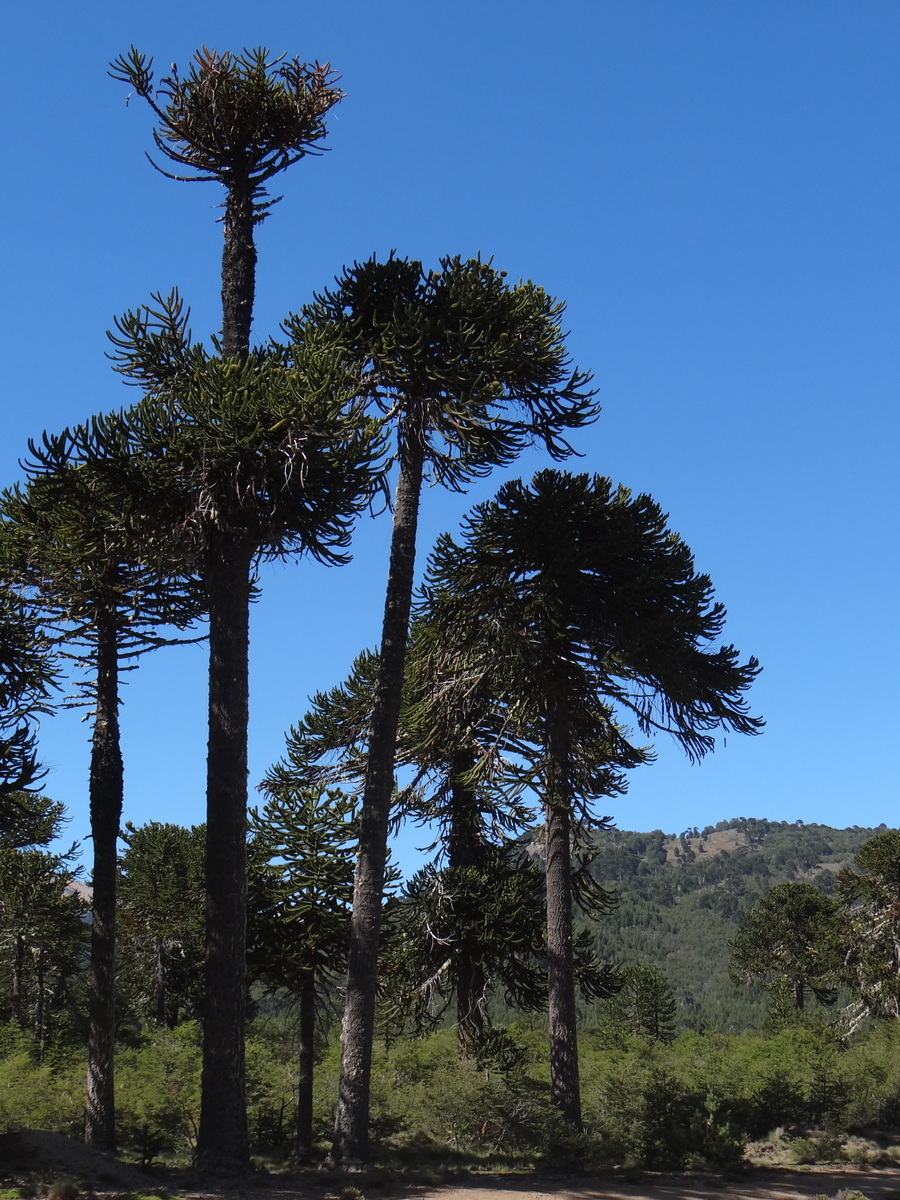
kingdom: Plantae
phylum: Tracheophyta
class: Pinopsida
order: Pinales
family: Araucariaceae
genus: Araucaria
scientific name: Araucaria araucana
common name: Monkey-puzzle
